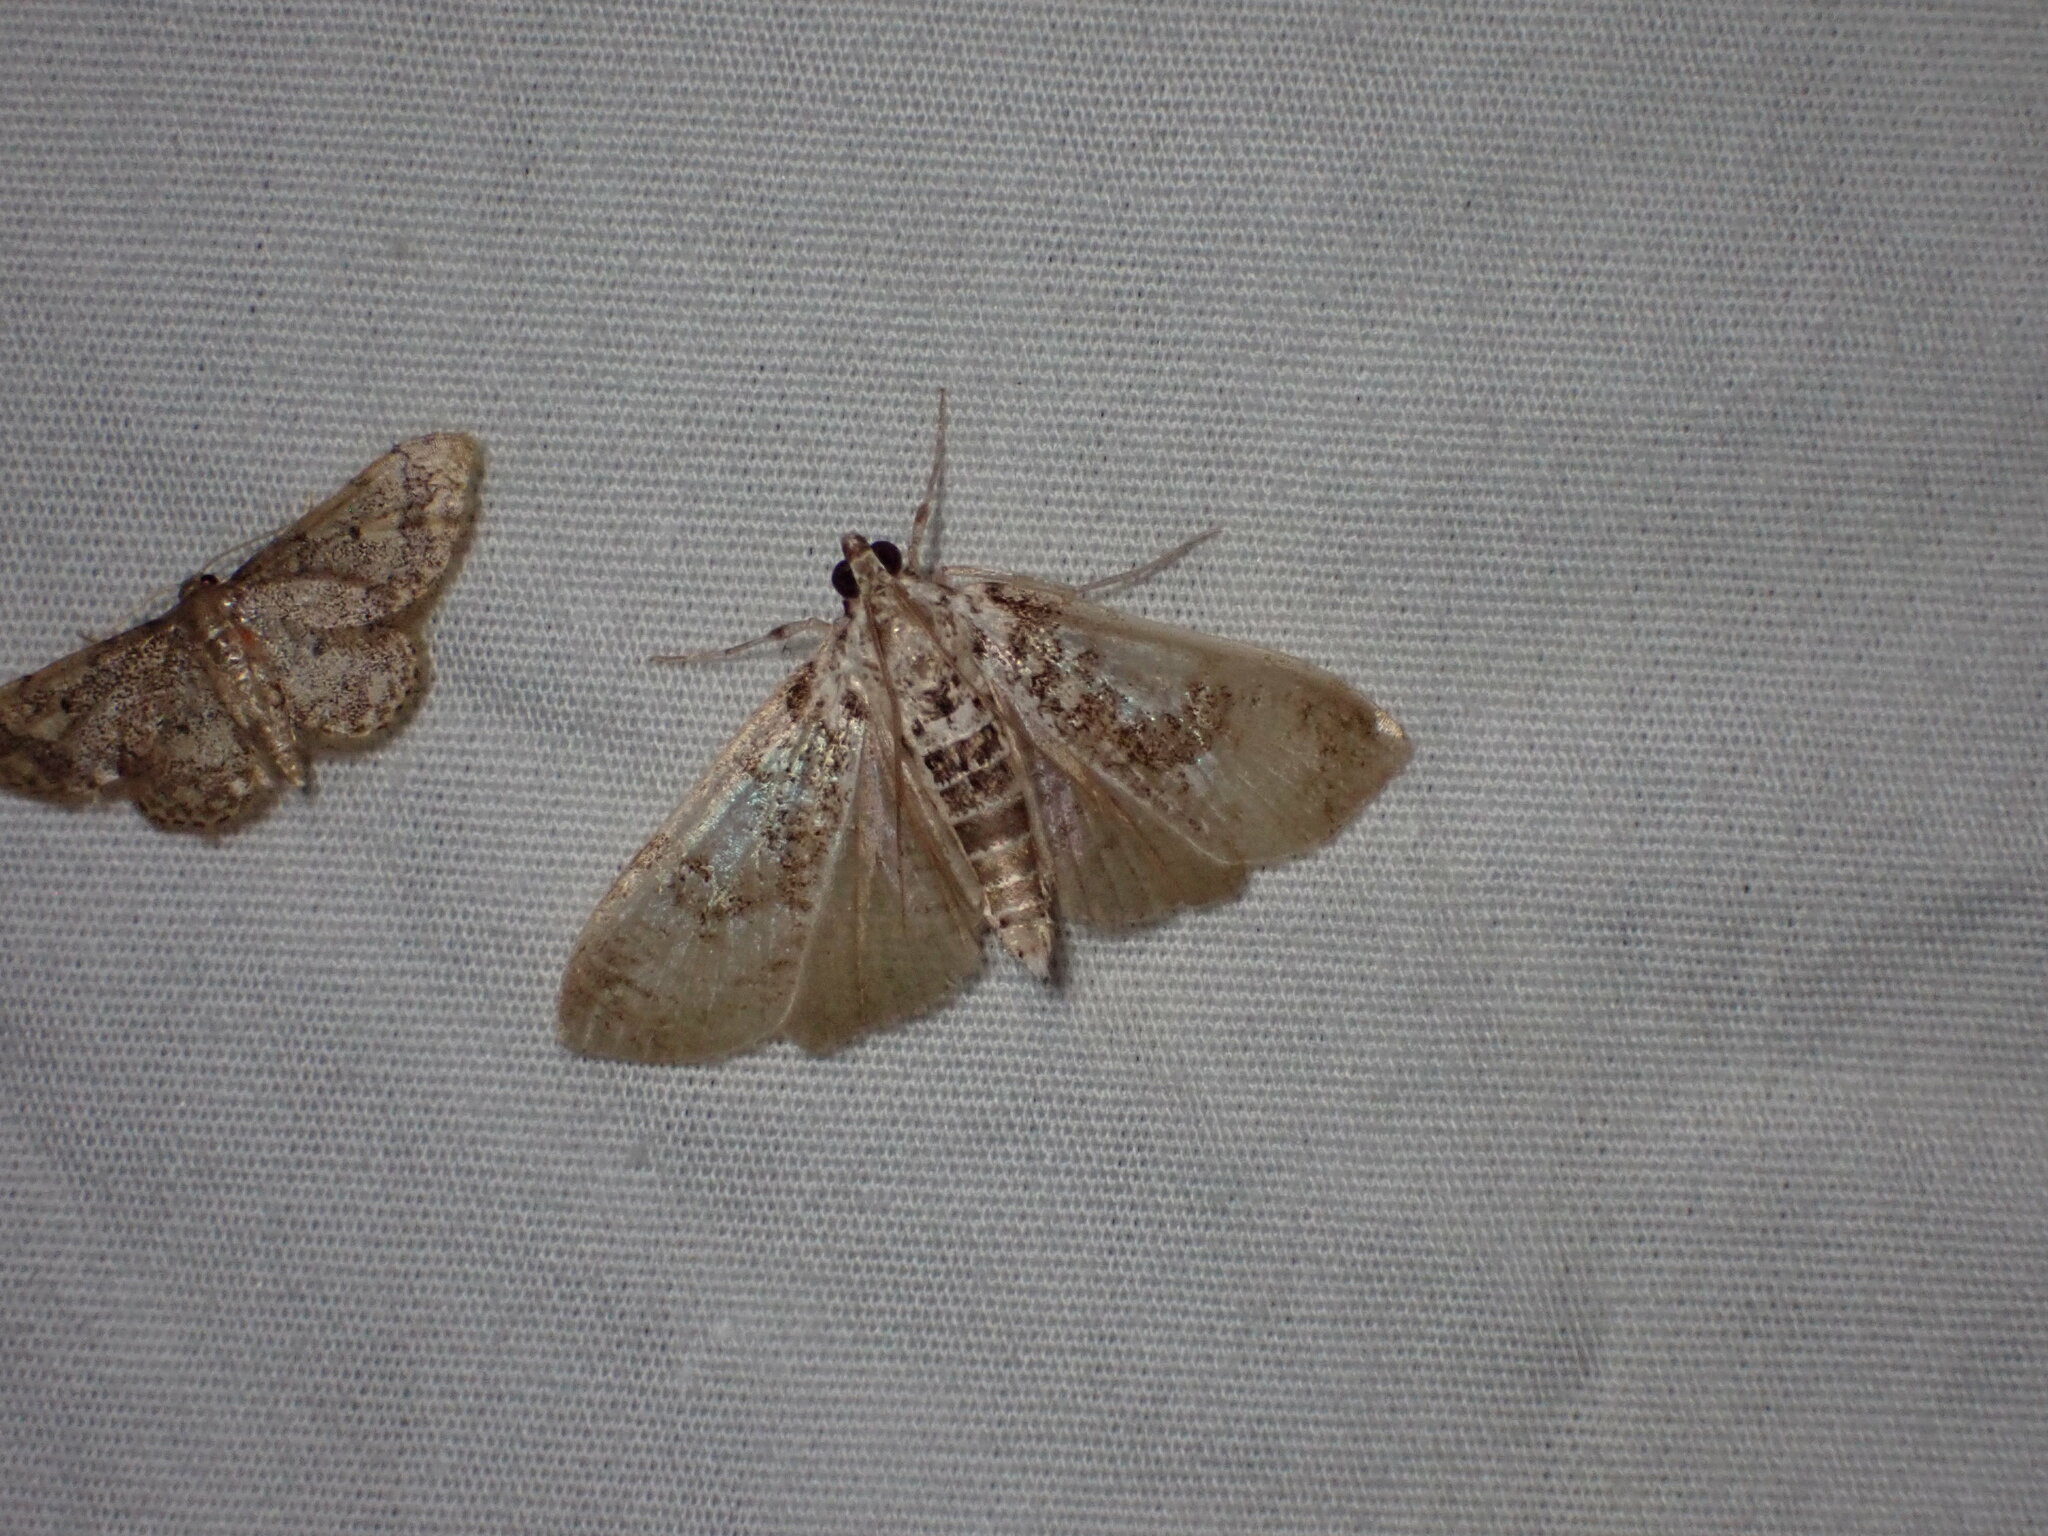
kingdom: Animalia
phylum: Arthropoda
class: Insecta
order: Lepidoptera
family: Crambidae
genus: Palpita
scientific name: Palpita freemanalis
